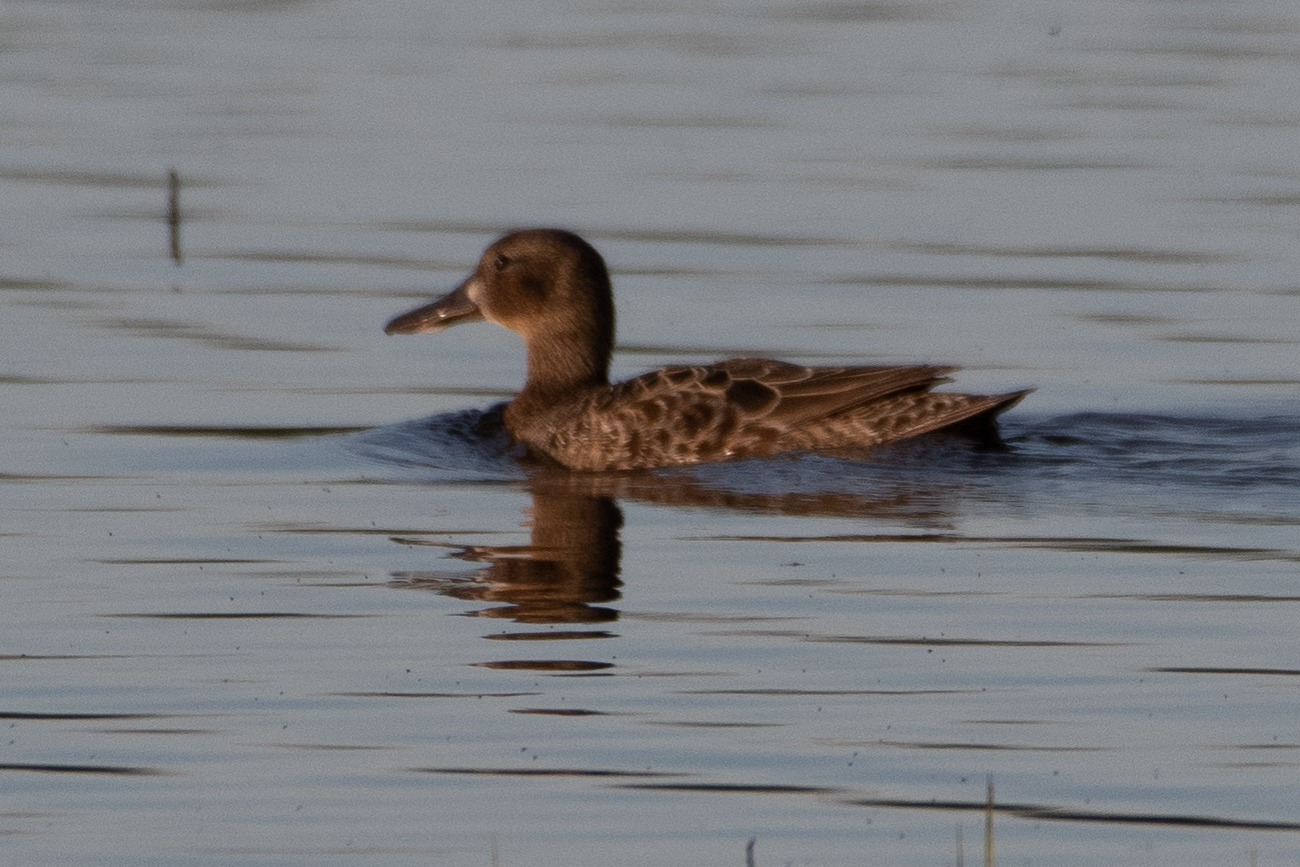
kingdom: Animalia
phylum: Chordata
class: Aves
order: Anseriformes
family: Anatidae
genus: Spatula
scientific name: Spatula clypeata
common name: Northern shoveler
